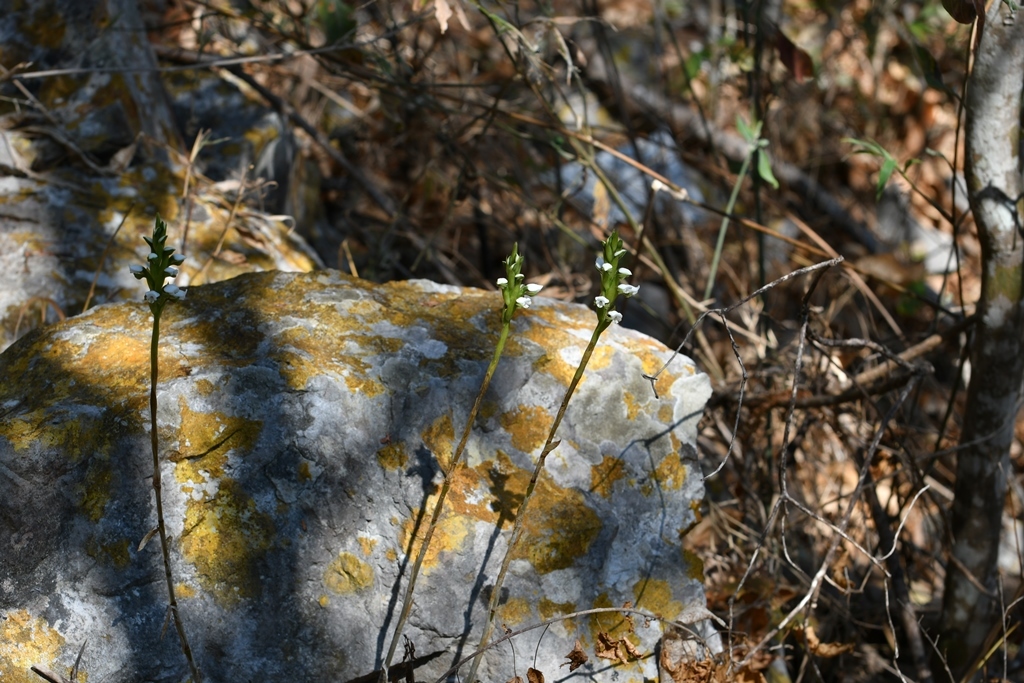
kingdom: Plantae
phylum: Tracheophyta
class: Liliopsida
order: Asparagales
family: Orchidaceae
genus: Aulosepalum
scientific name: Aulosepalum hemichrea
